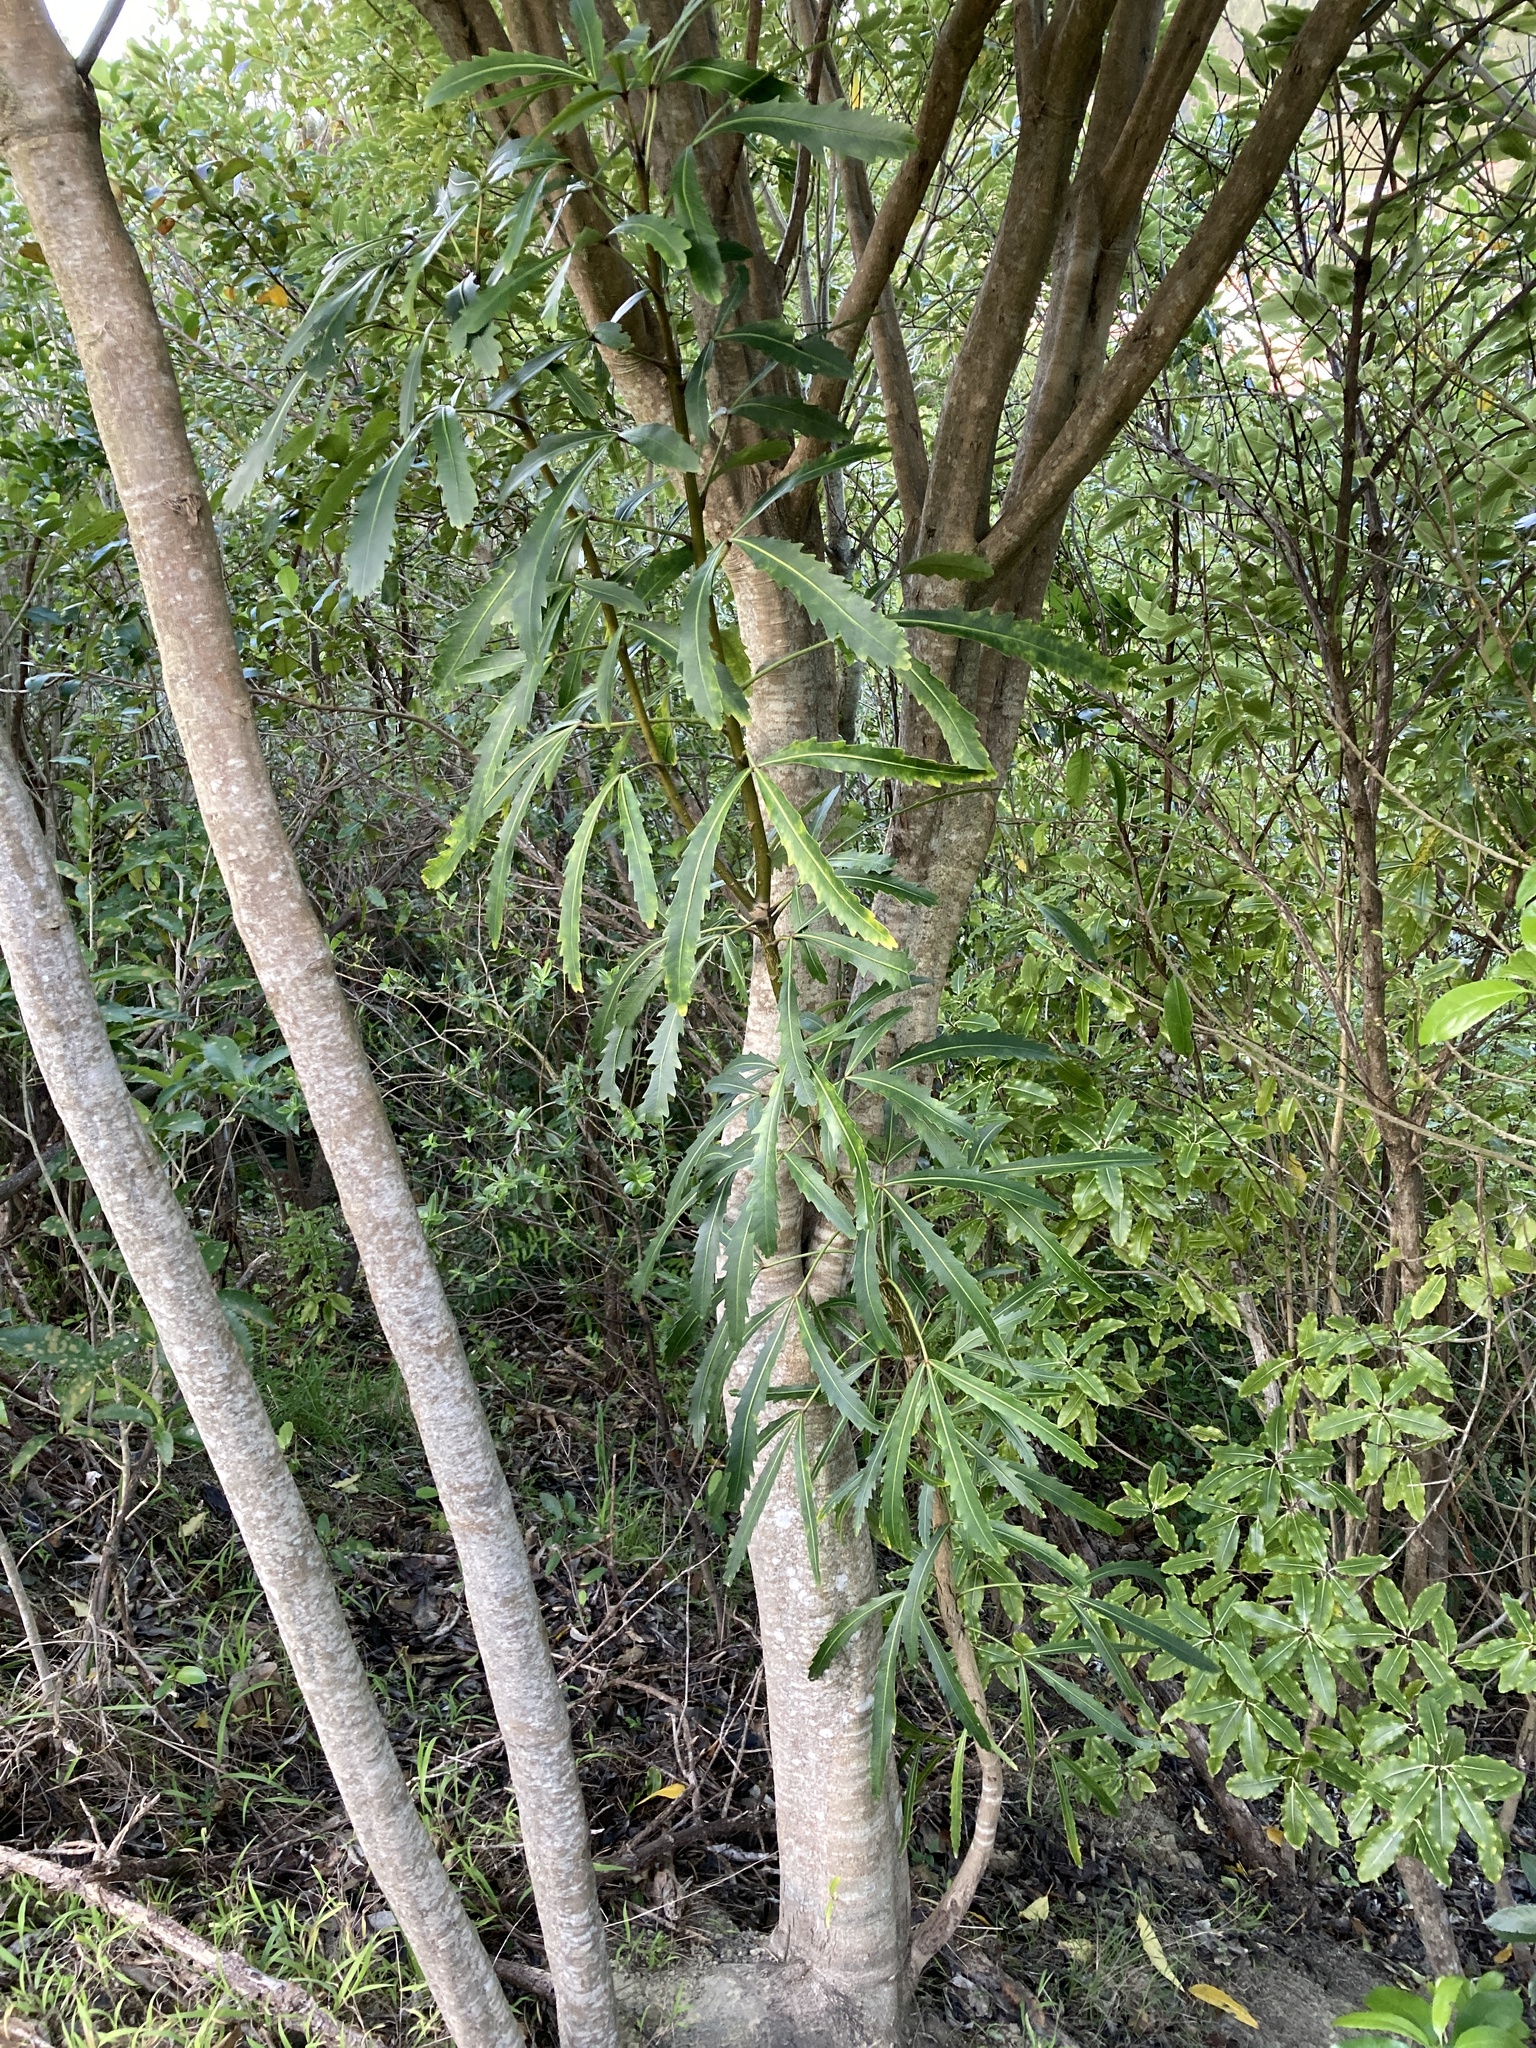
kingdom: Plantae
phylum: Tracheophyta
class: Magnoliopsida
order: Apiales
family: Araliaceae
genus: Pseudopanax
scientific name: Pseudopanax
